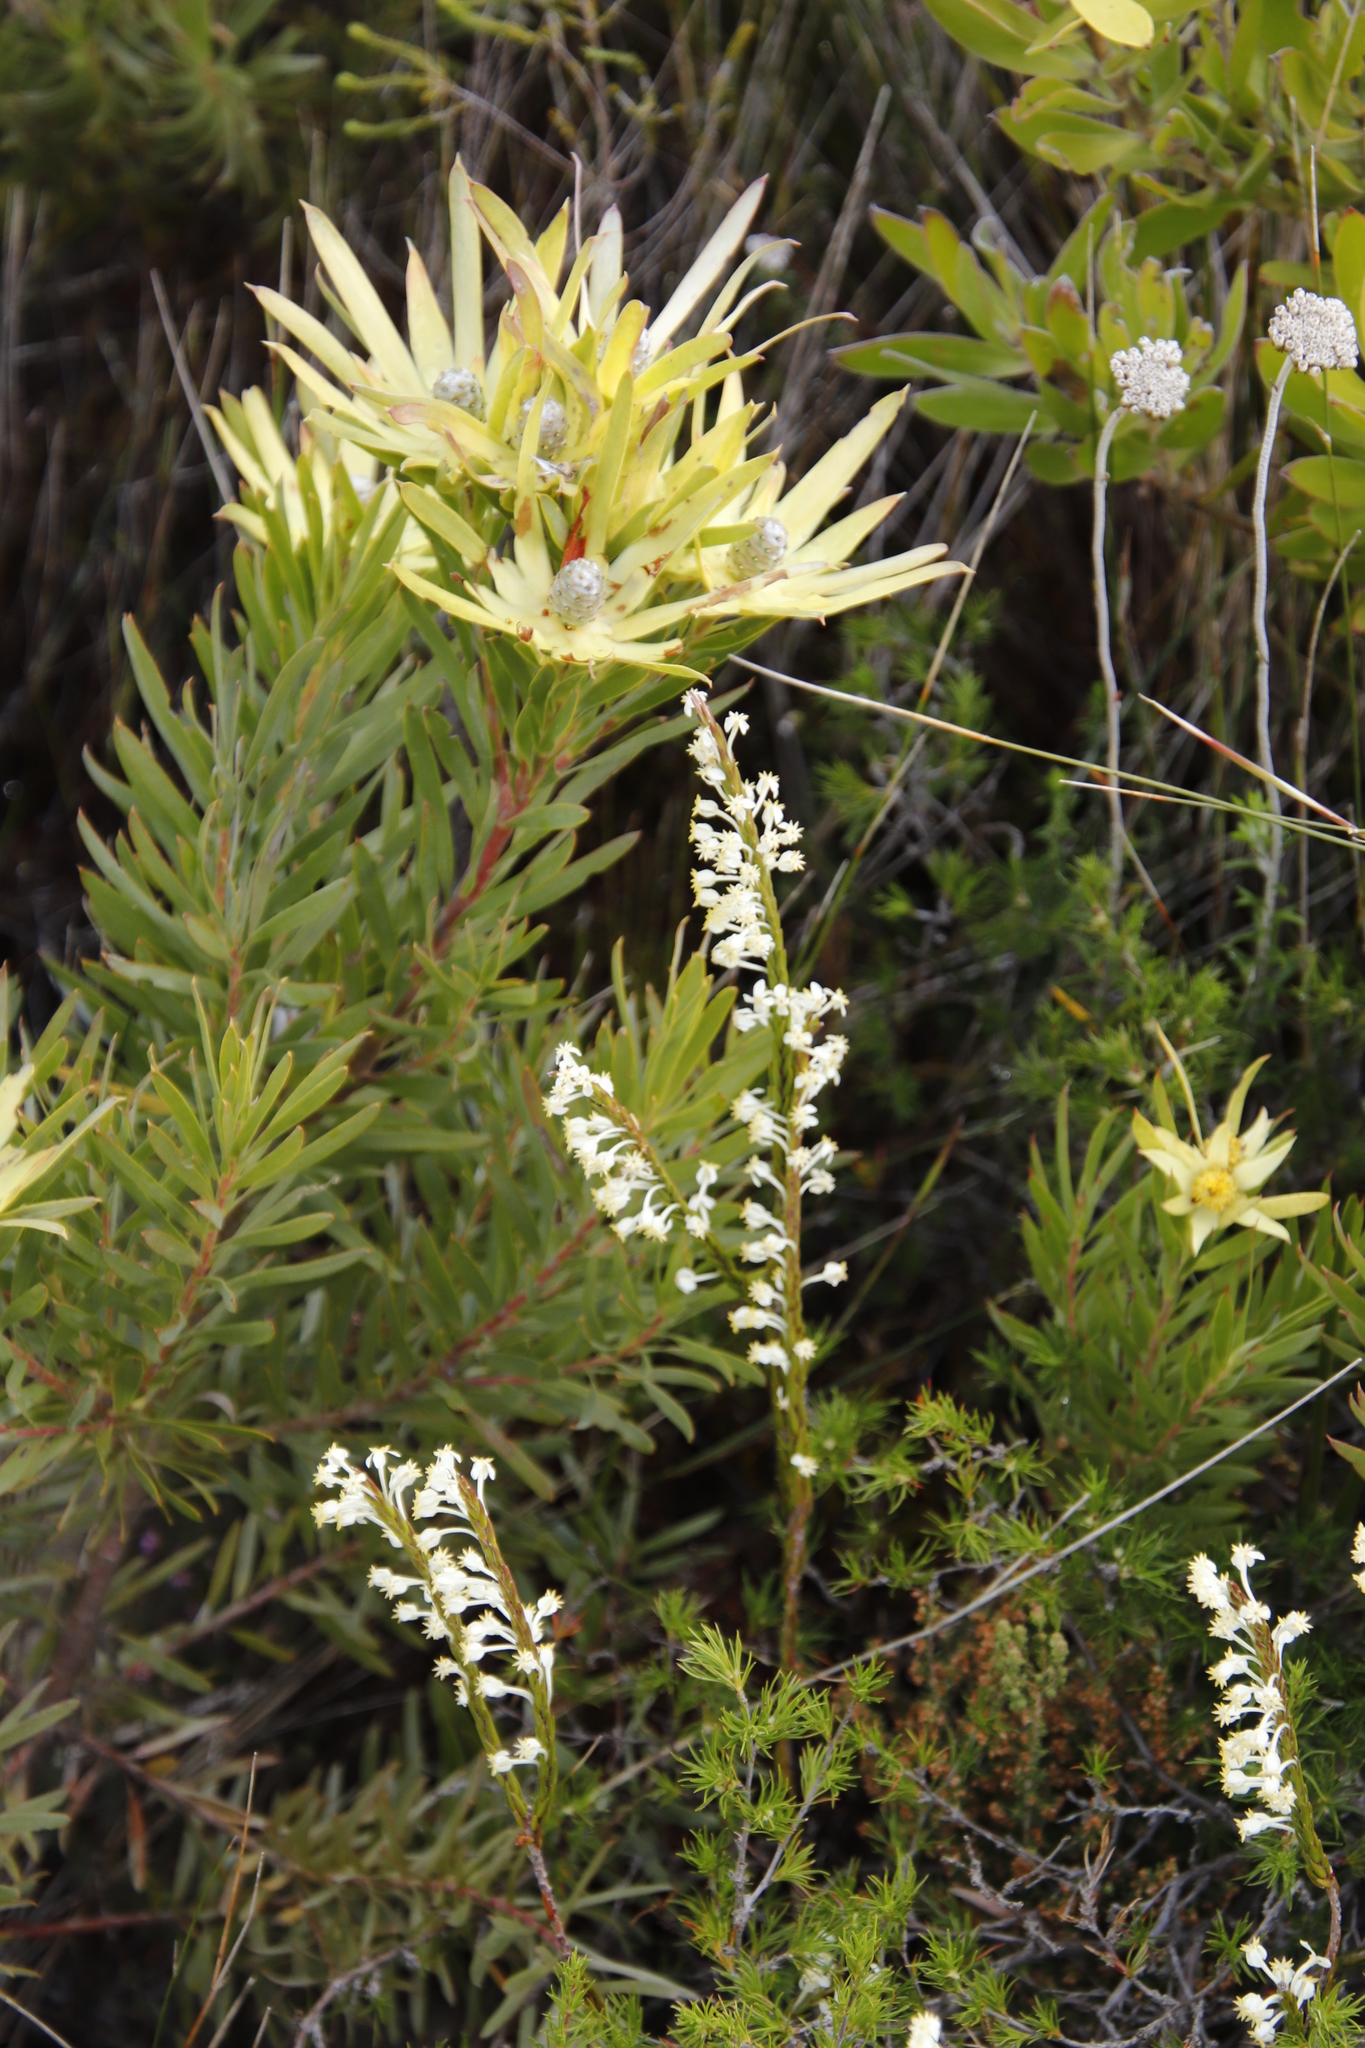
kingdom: Plantae
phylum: Tracheophyta
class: Magnoliopsida
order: Proteales
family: Proteaceae
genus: Leucadendron
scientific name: Leucadendron xanthoconus
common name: Sickle-leaf conebush
